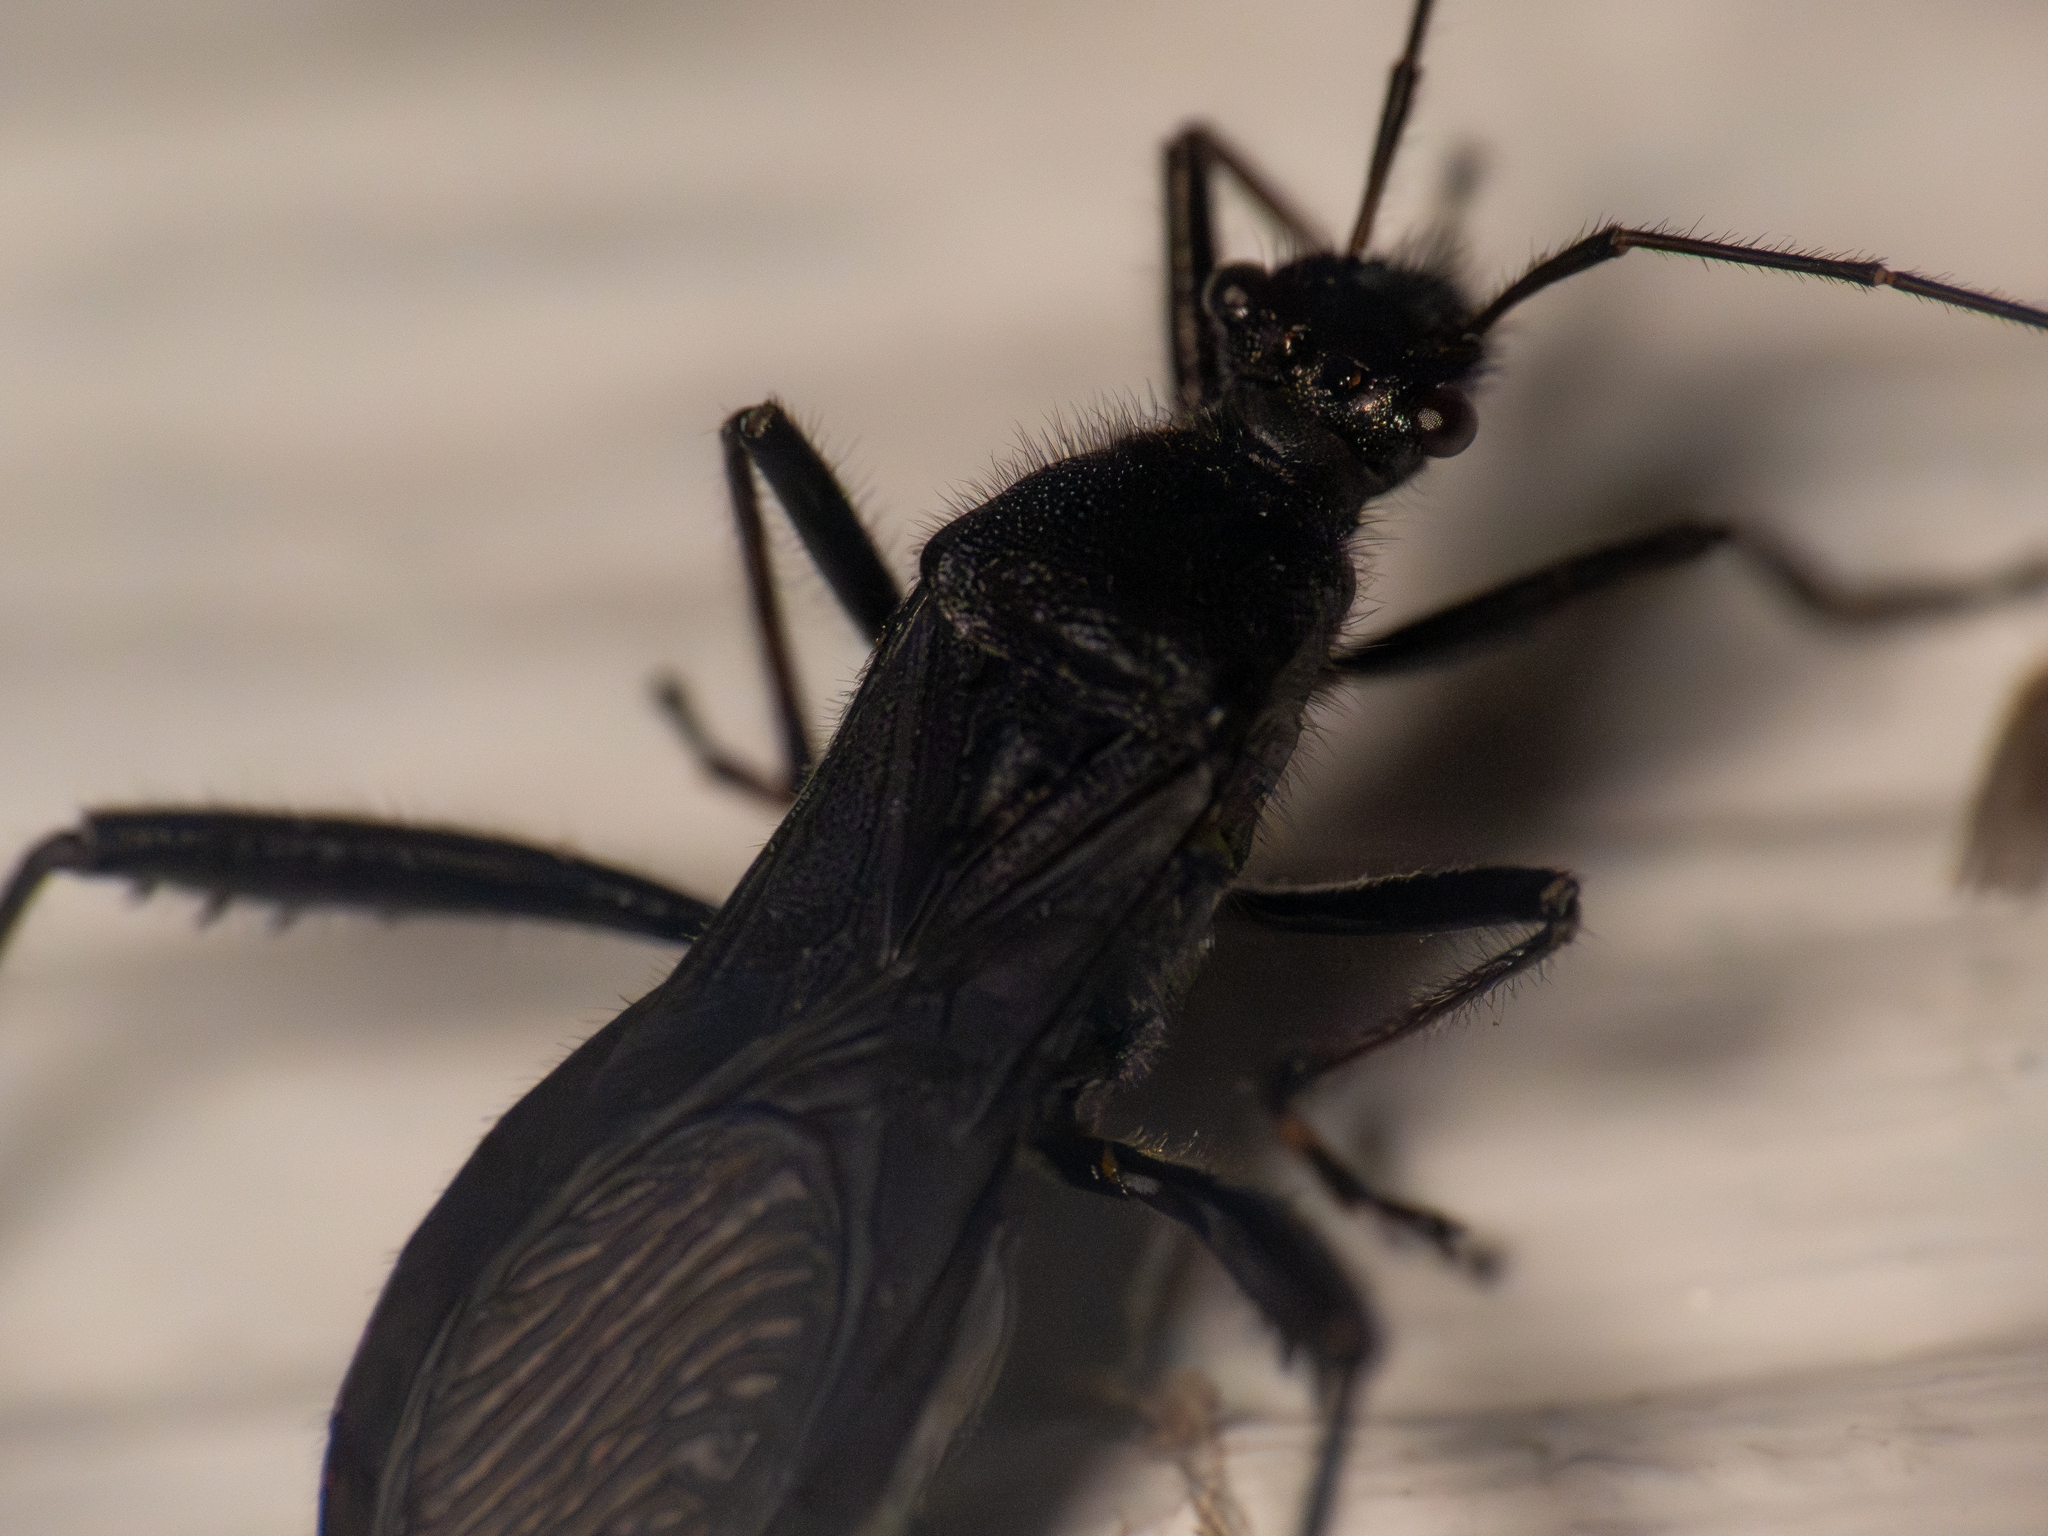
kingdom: Animalia
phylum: Arthropoda
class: Insecta
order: Hemiptera
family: Alydidae
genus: Alydus
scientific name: Alydus eurinus
